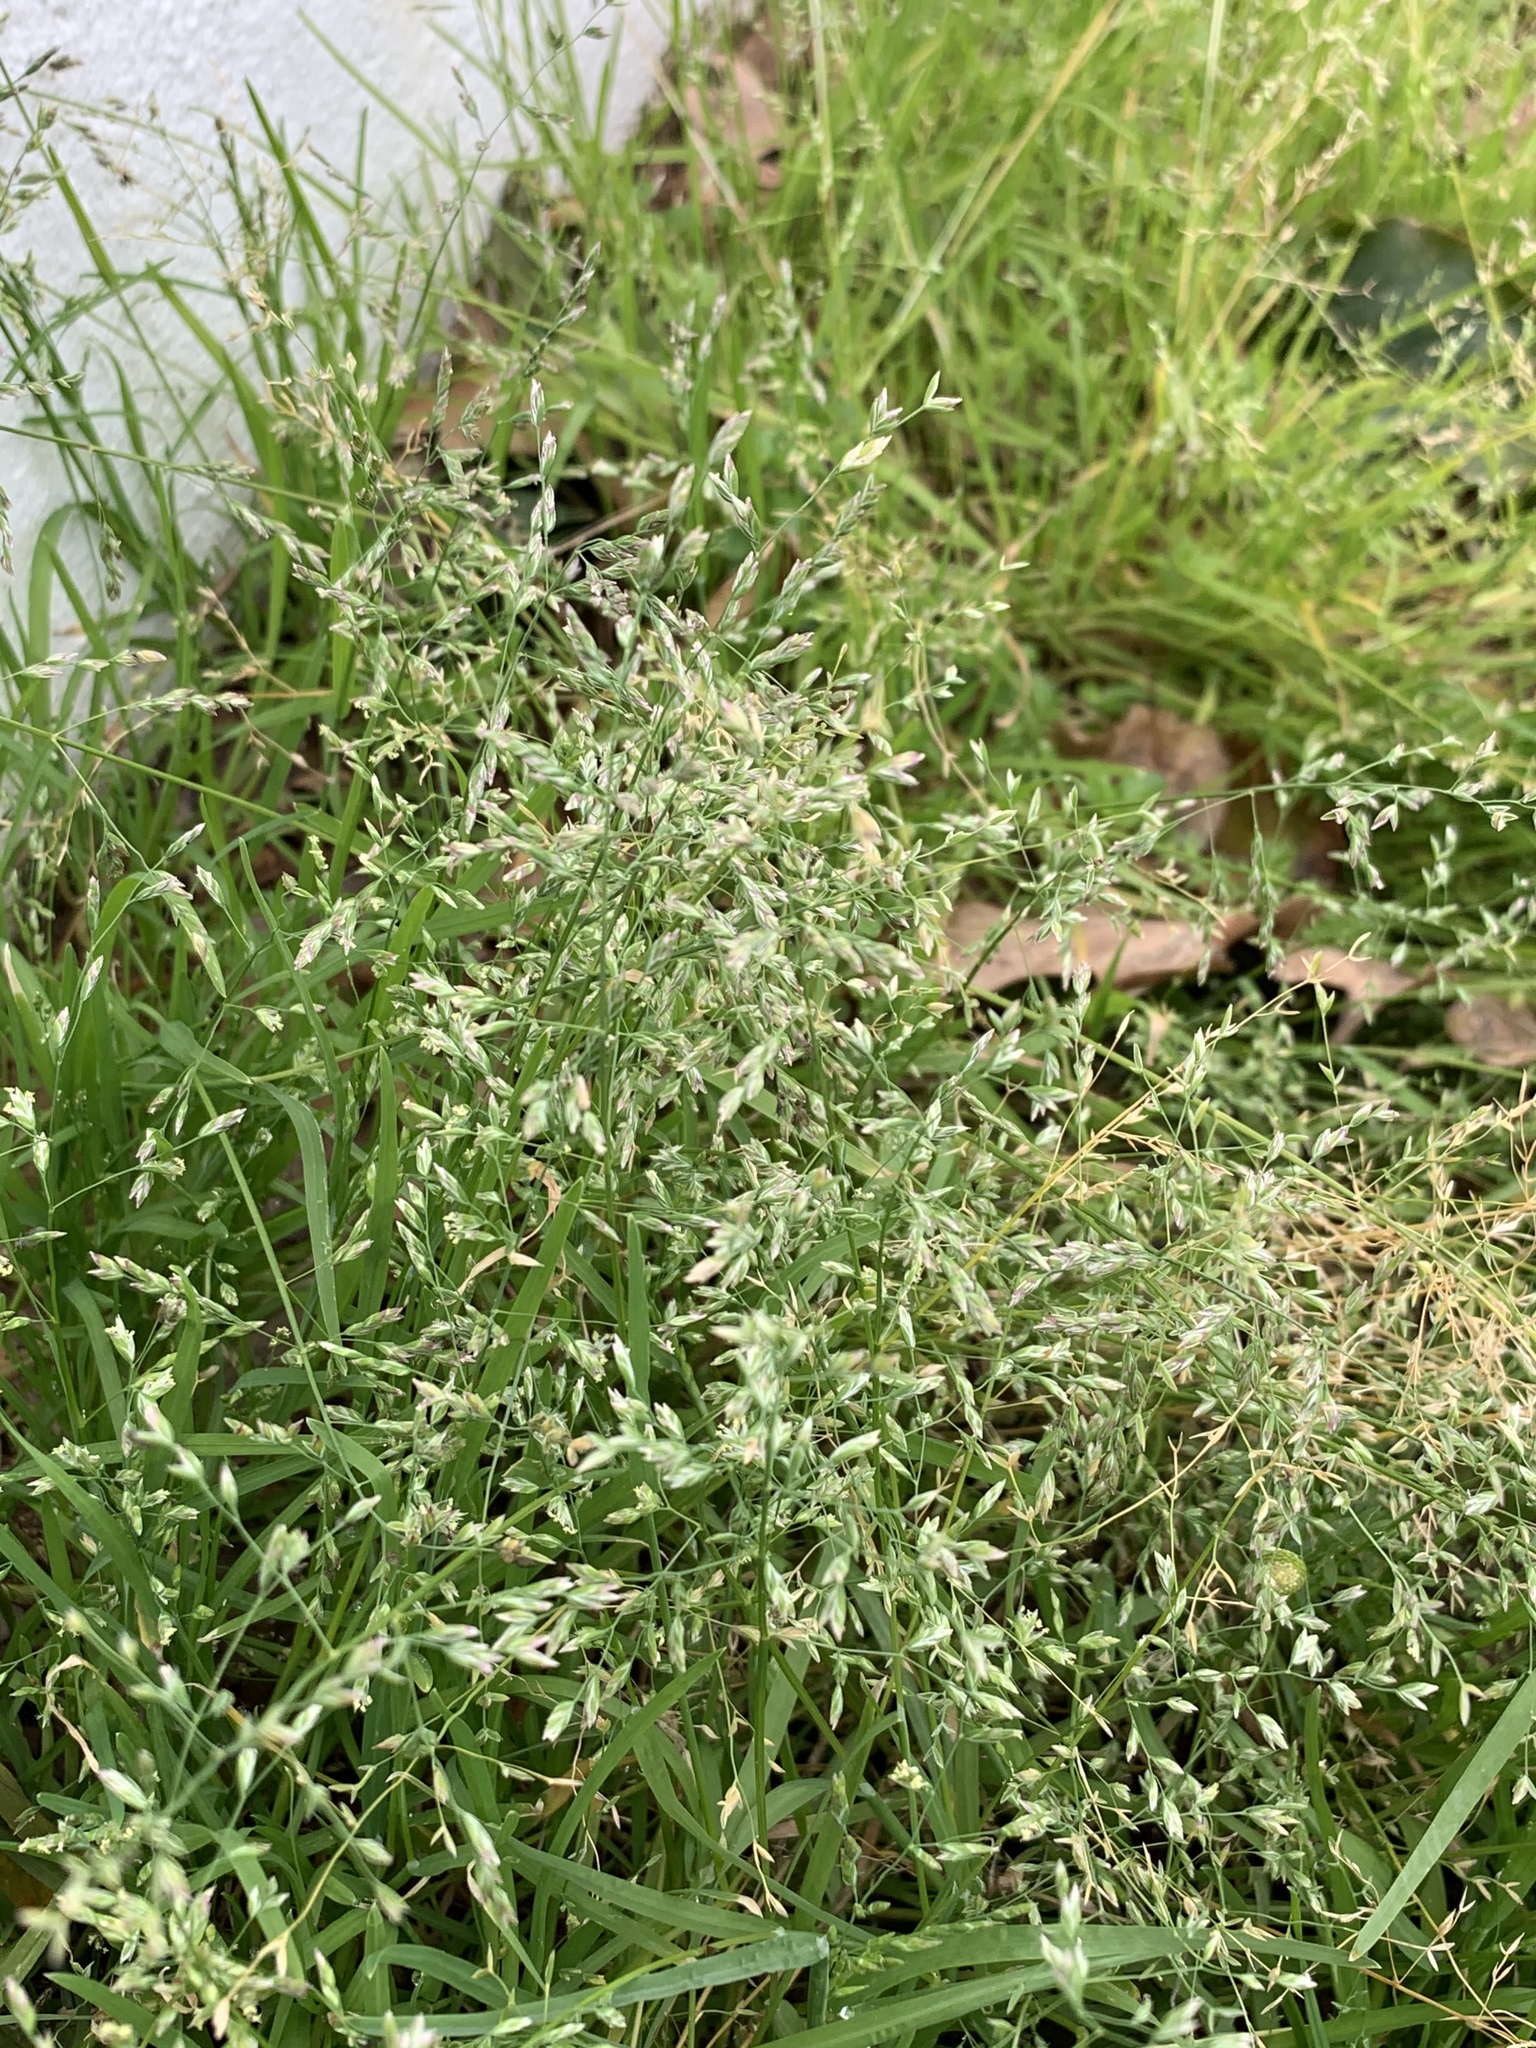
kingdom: Plantae
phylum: Tracheophyta
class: Liliopsida
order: Poales
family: Poaceae
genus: Poa
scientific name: Poa annua
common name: Annual bluegrass
